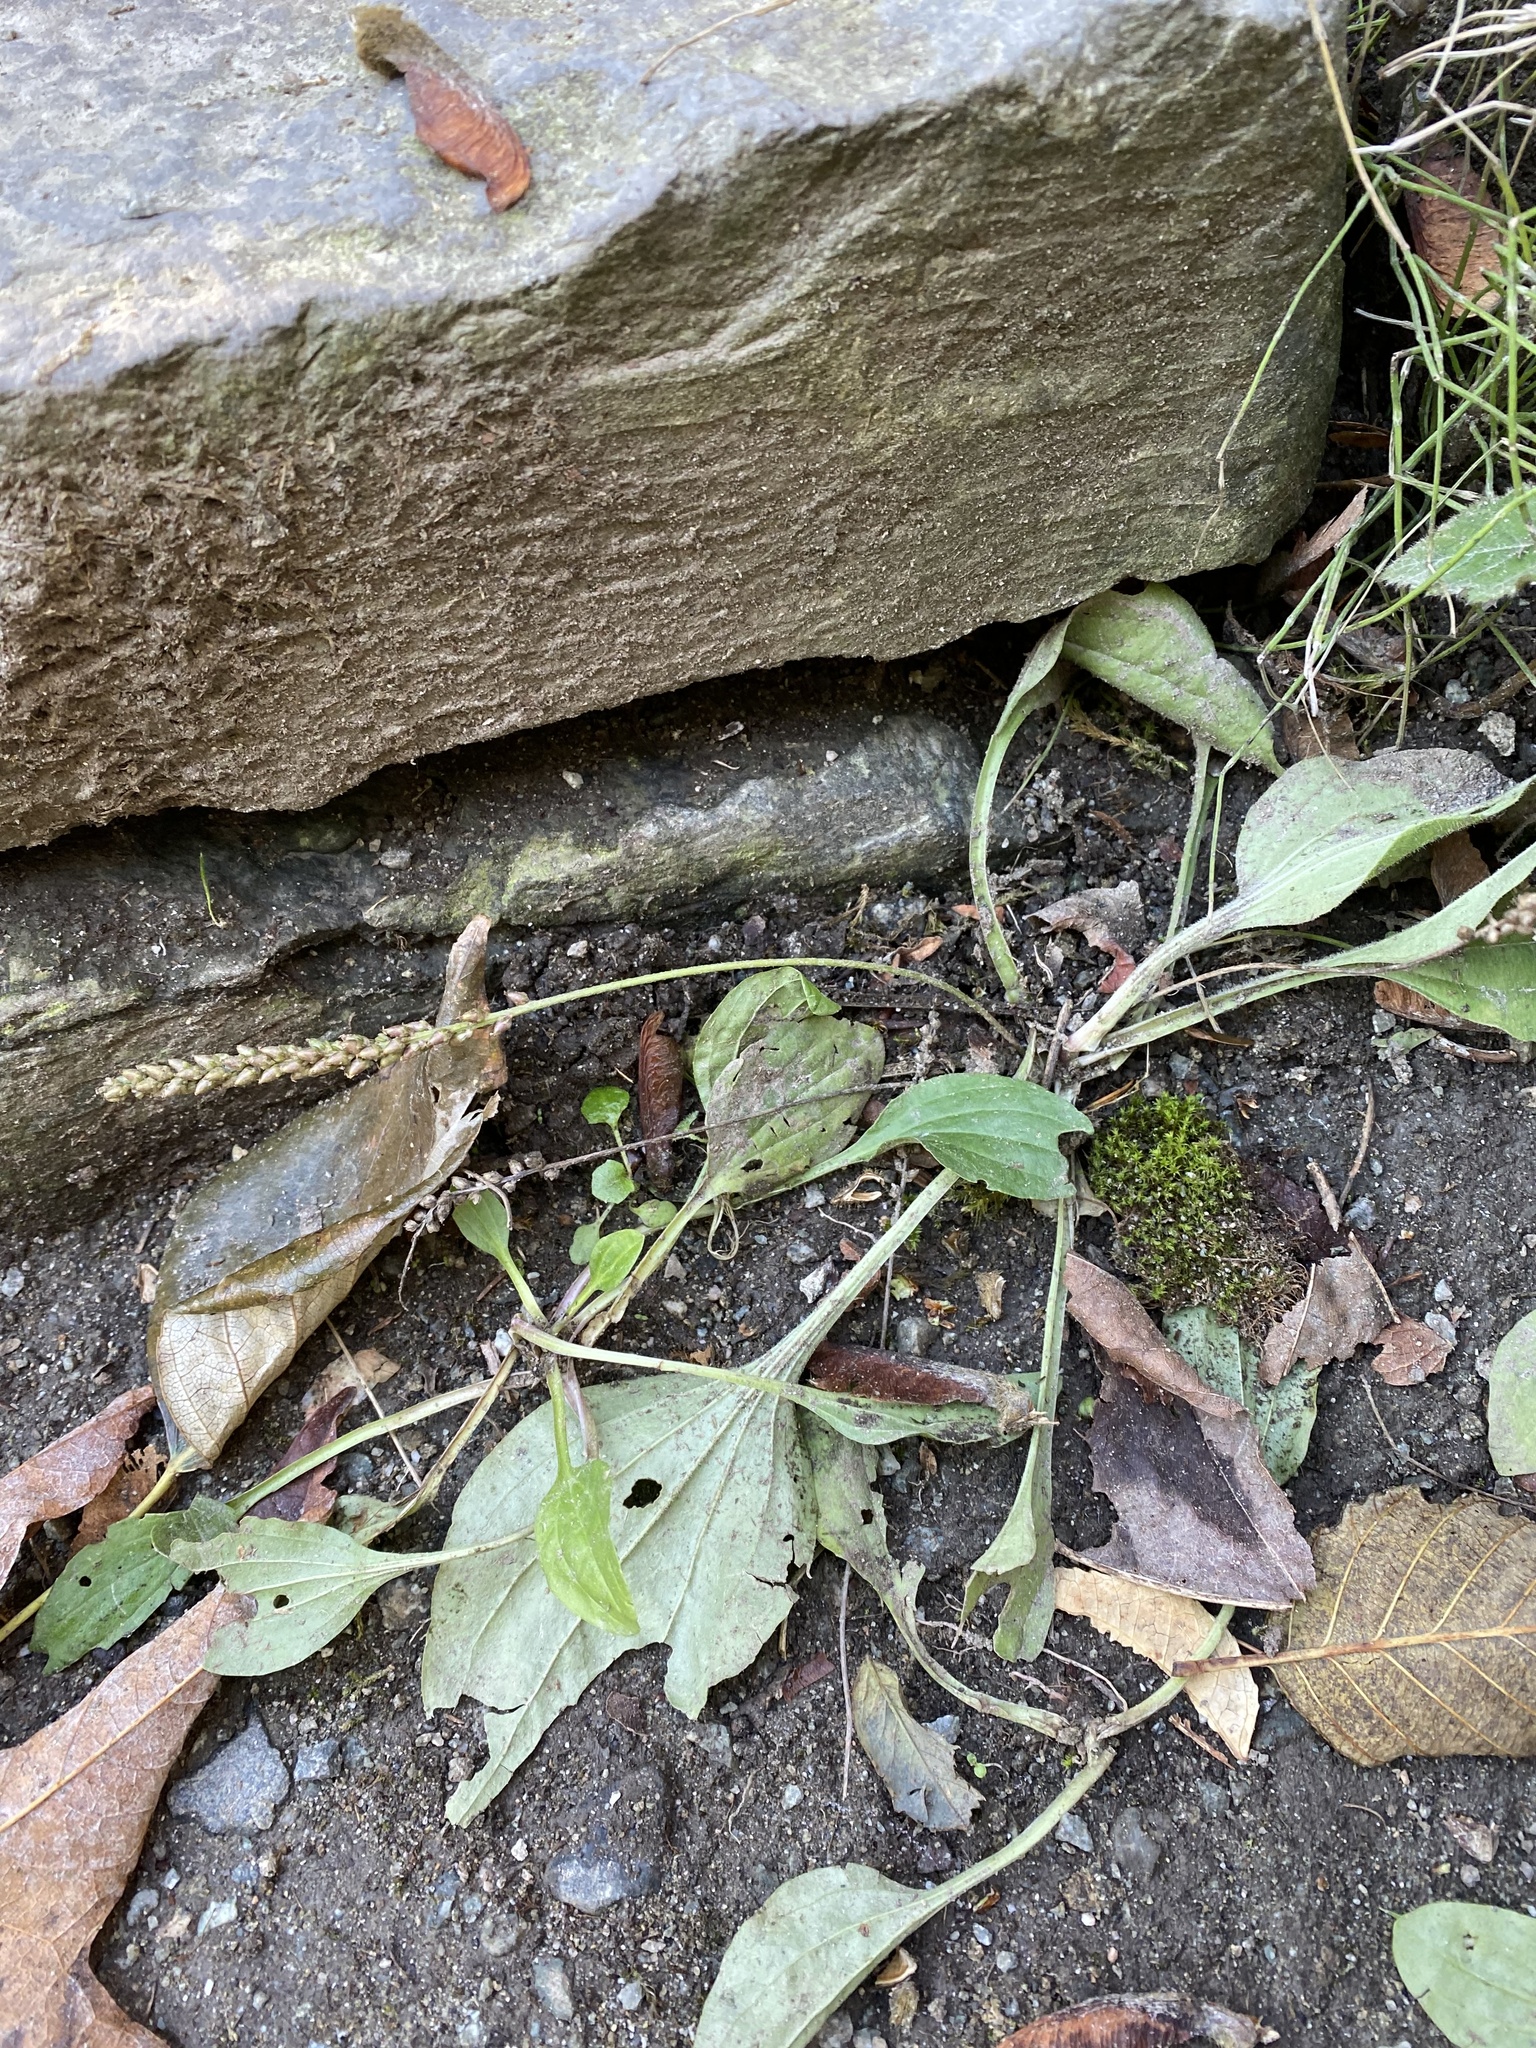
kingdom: Plantae
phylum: Tracheophyta
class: Magnoliopsida
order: Lamiales
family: Plantaginaceae
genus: Plantago
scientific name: Plantago major
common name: Common plantain
